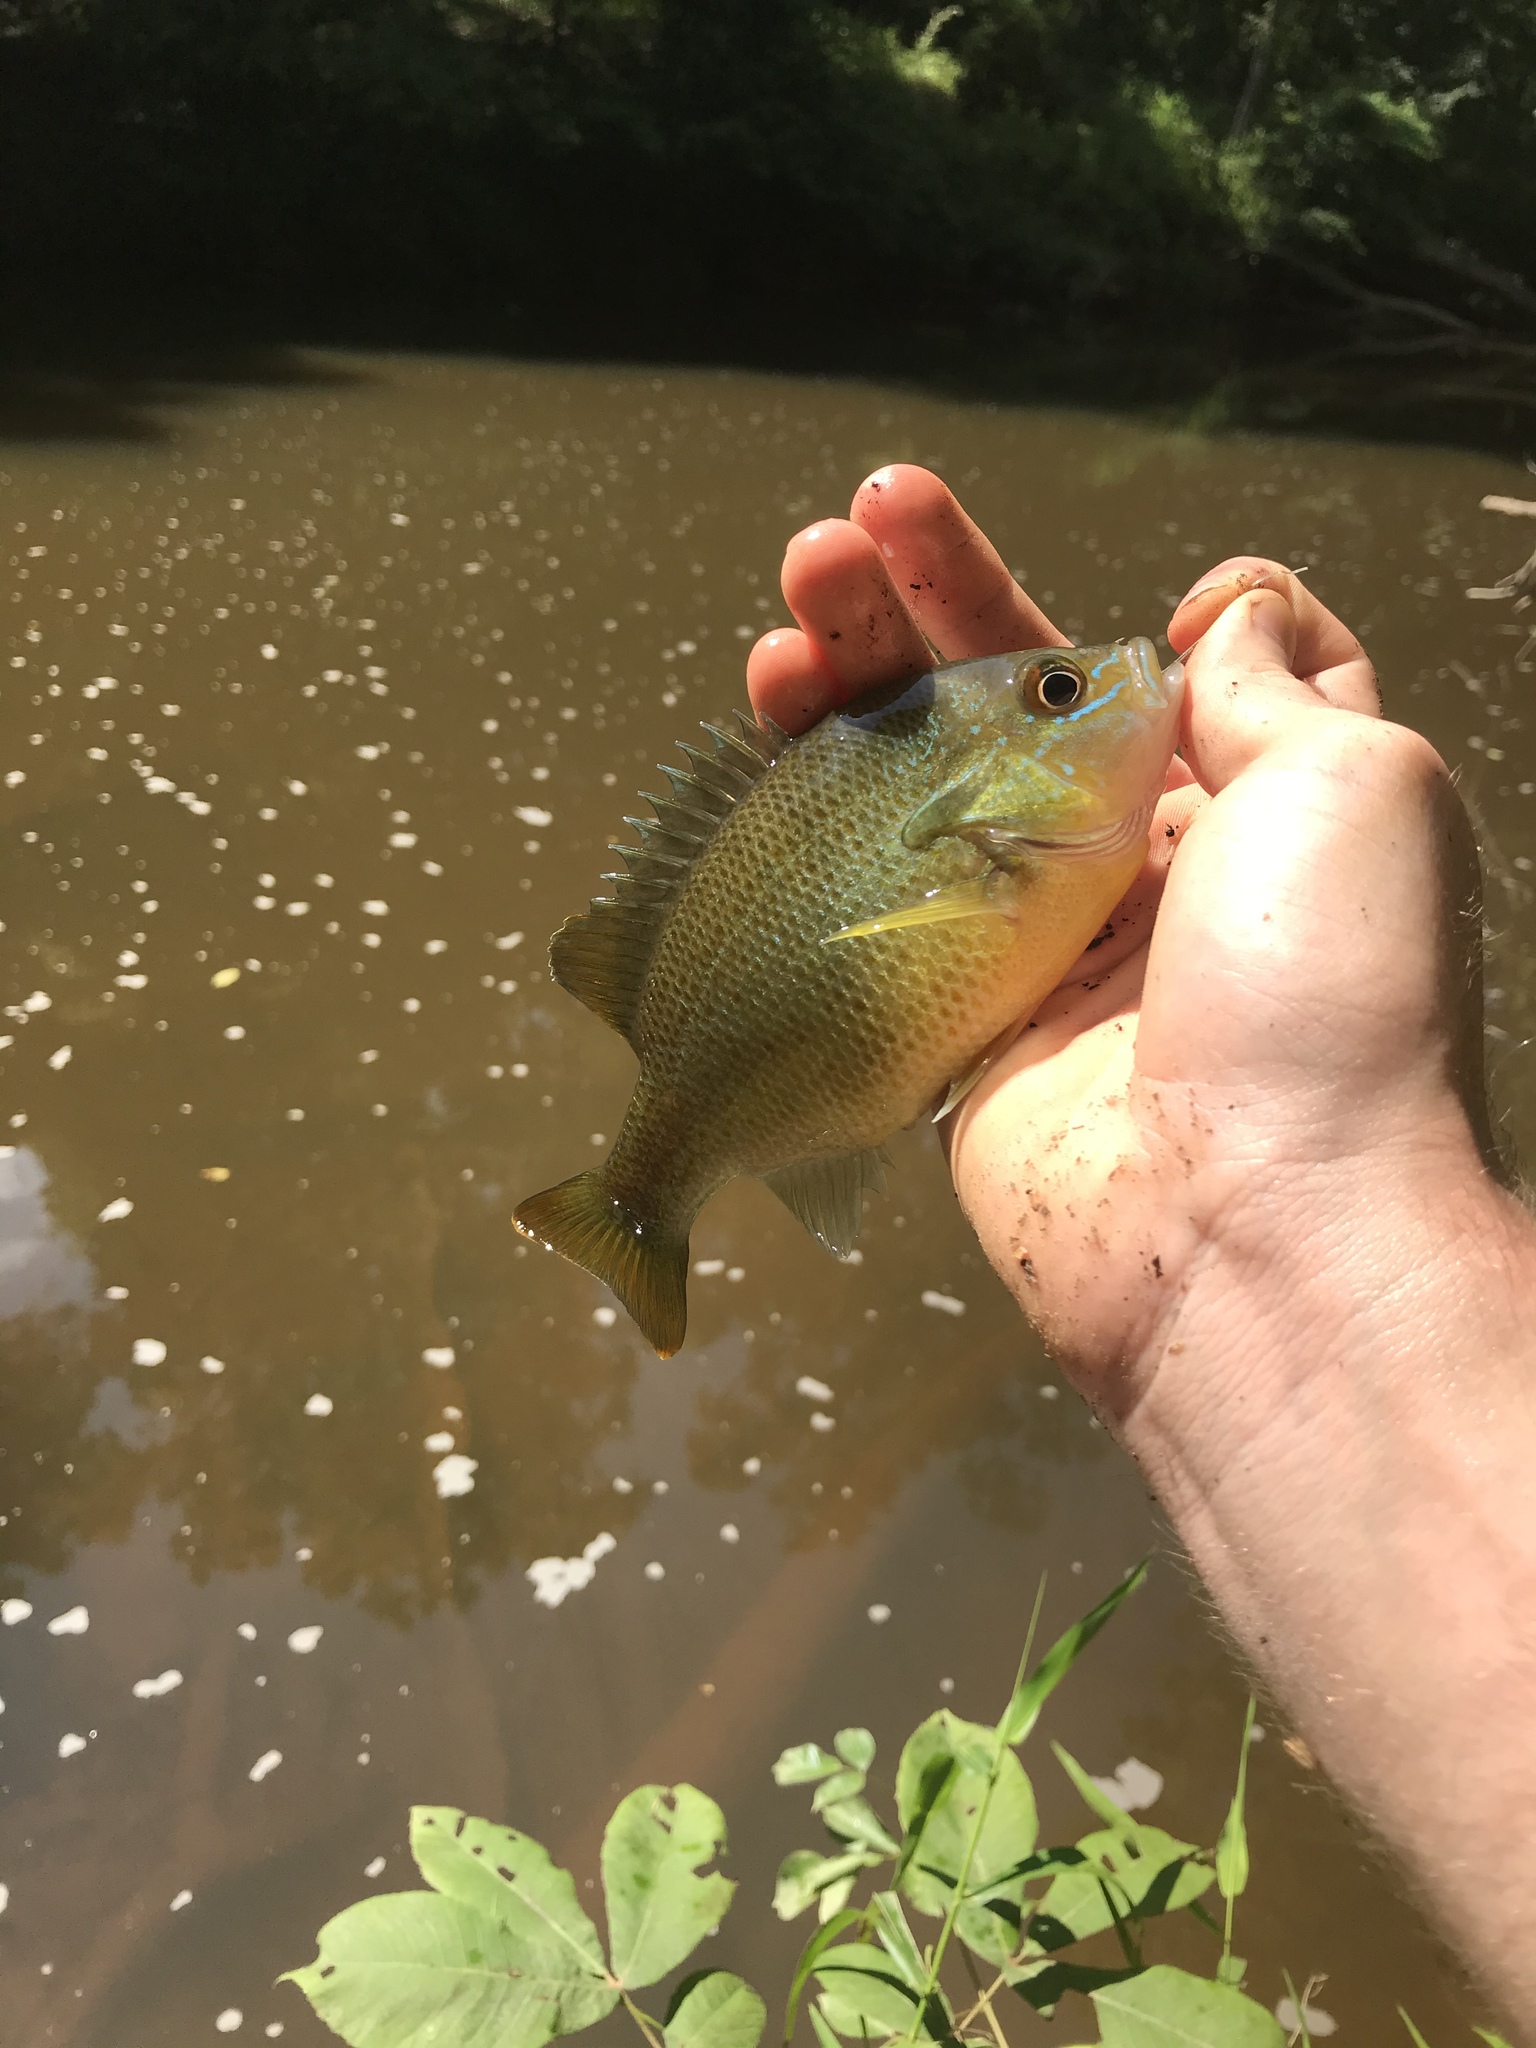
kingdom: Animalia
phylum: Chordata
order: Perciformes
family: Centrarchidae
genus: Lepomis
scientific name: Lepomis auritus
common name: Redbreast sunfish
